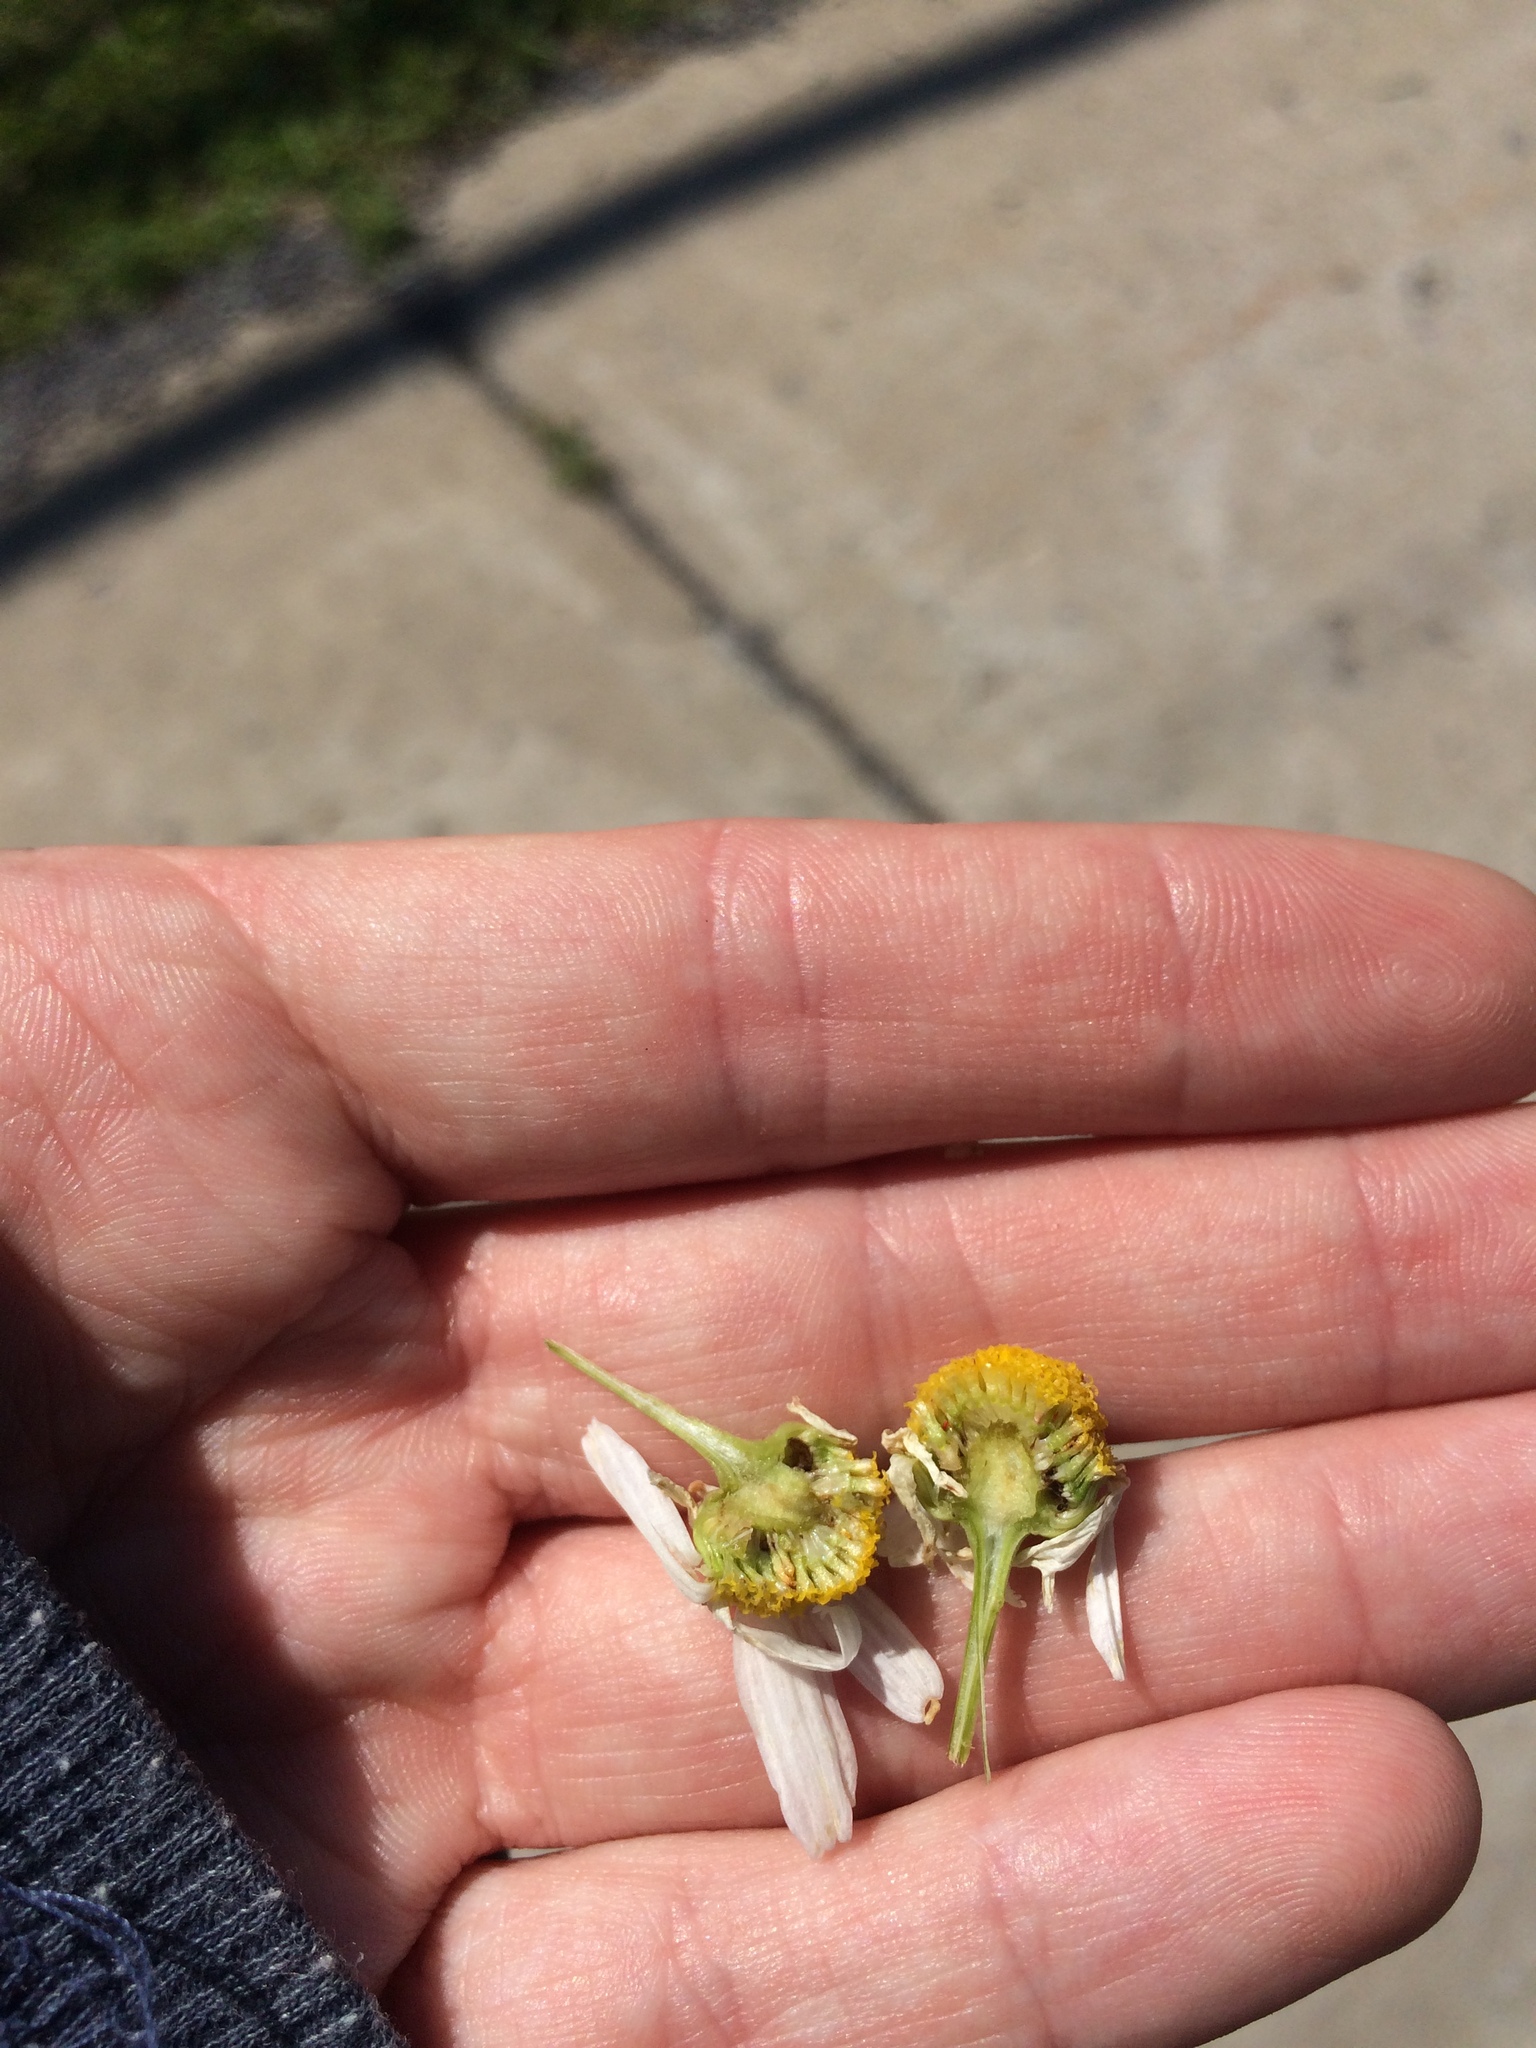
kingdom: Plantae
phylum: Tracheophyta
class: Magnoliopsida
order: Asterales
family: Asteraceae
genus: Tripleurospermum
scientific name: Tripleurospermum inodorum
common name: Scentless mayweed
